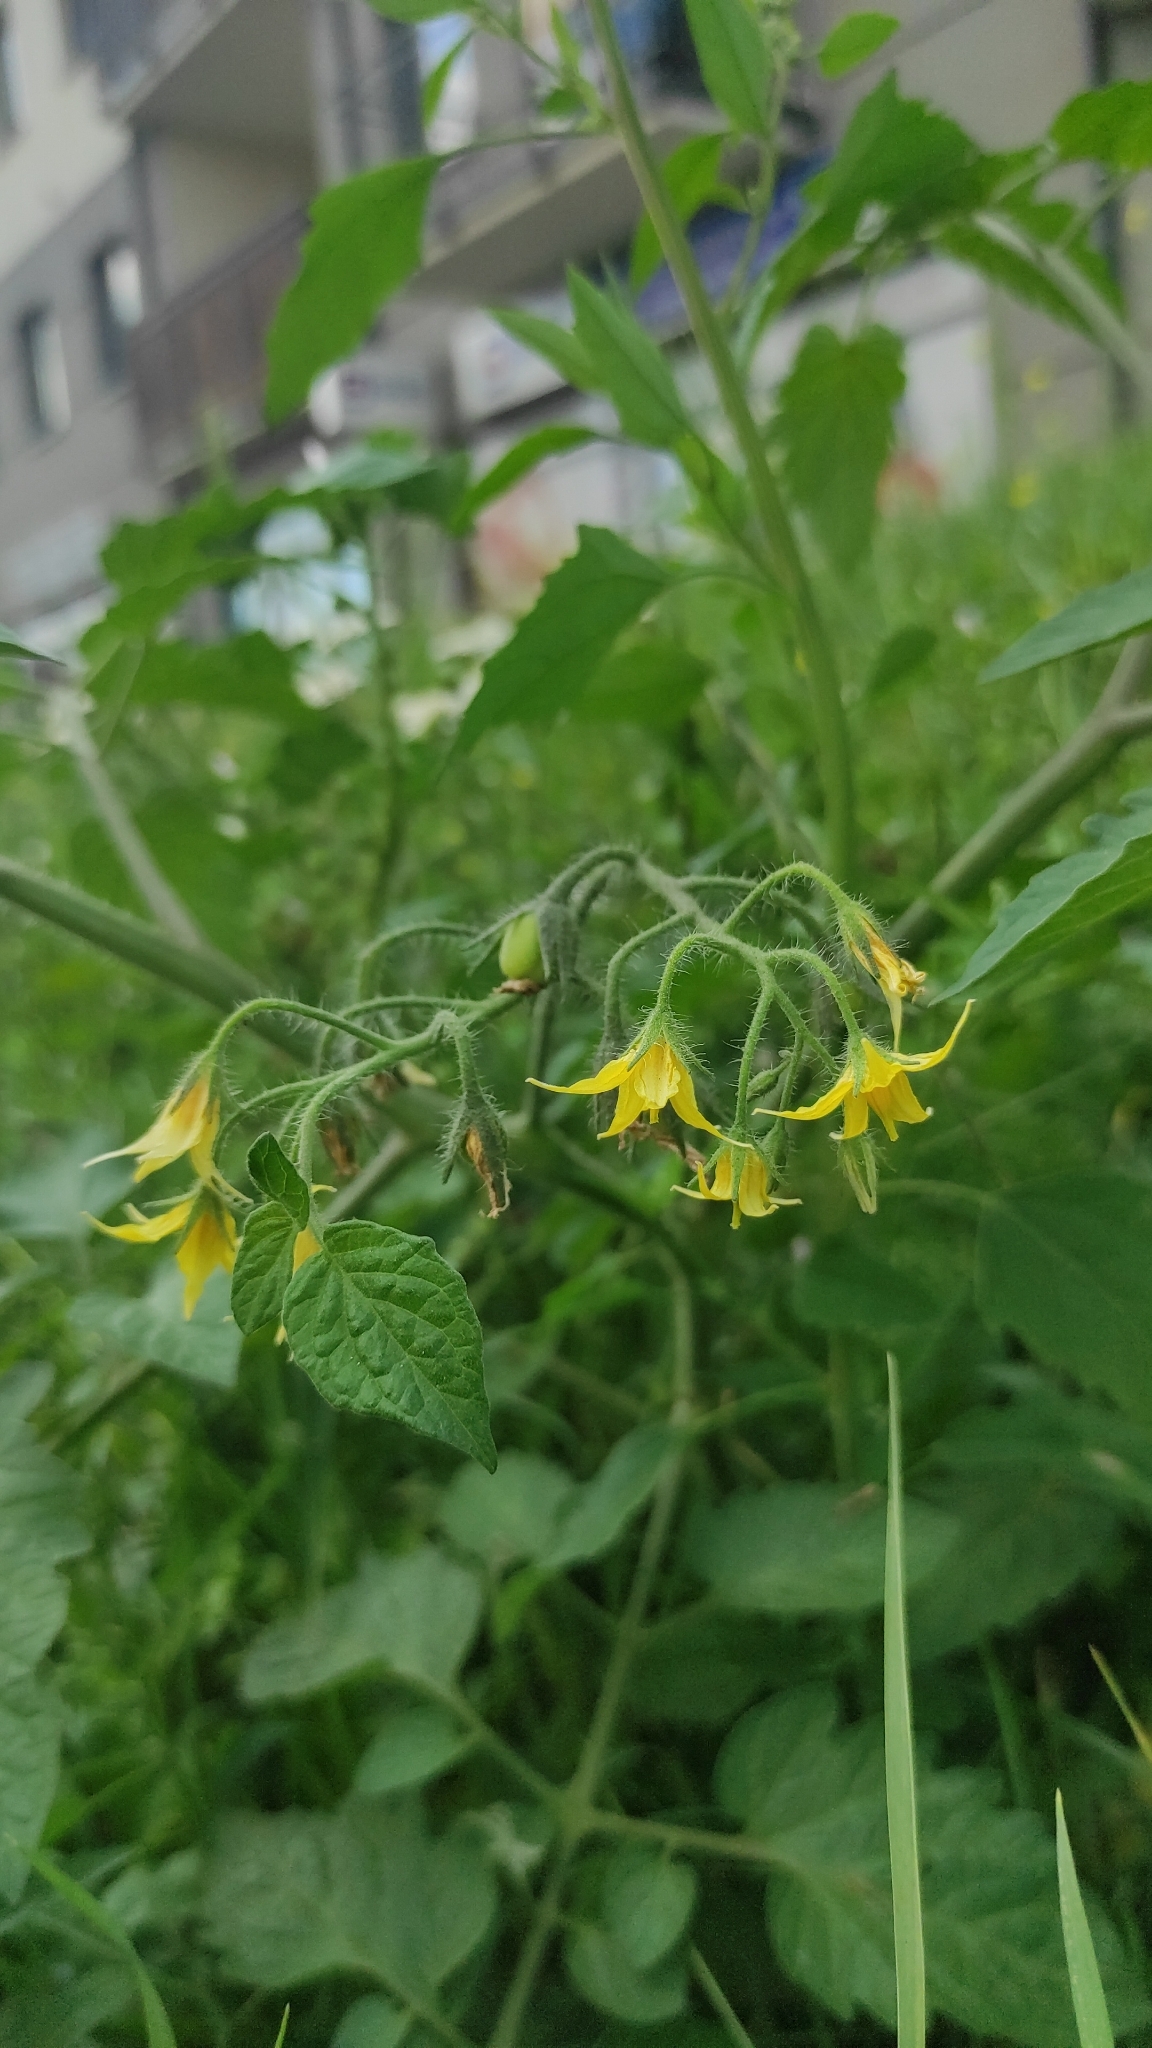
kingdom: Plantae
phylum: Tracheophyta
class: Magnoliopsida
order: Solanales
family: Solanaceae
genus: Solanum
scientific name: Solanum lycopersicum
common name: Garden tomato
